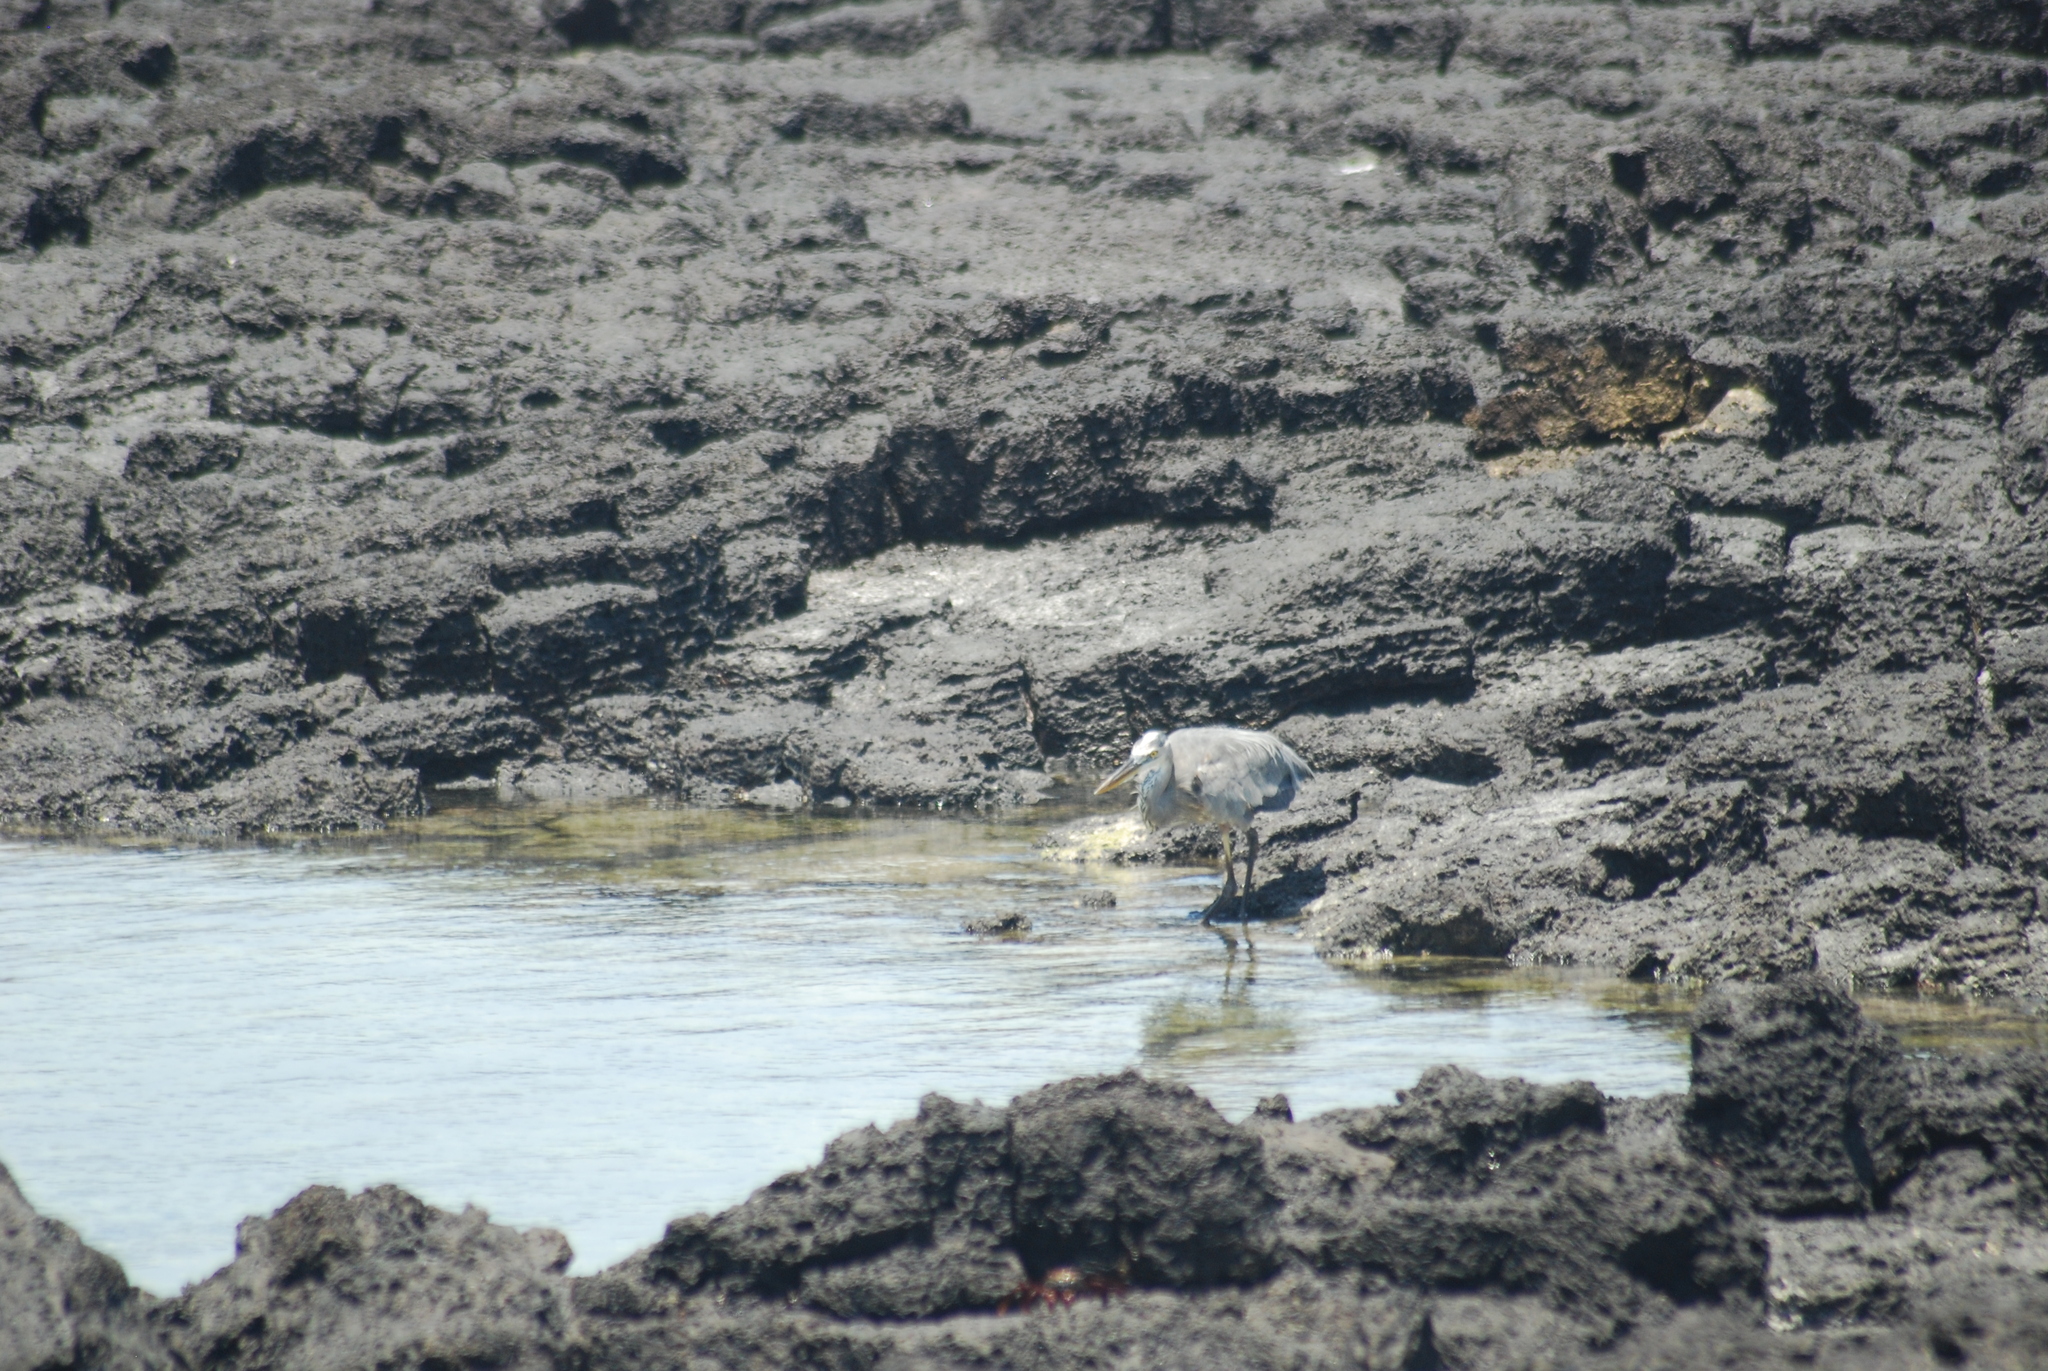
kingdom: Animalia
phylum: Chordata
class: Aves
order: Pelecaniformes
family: Ardeidae
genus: Ardea
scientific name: Ardea herodias
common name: Great blue heron
